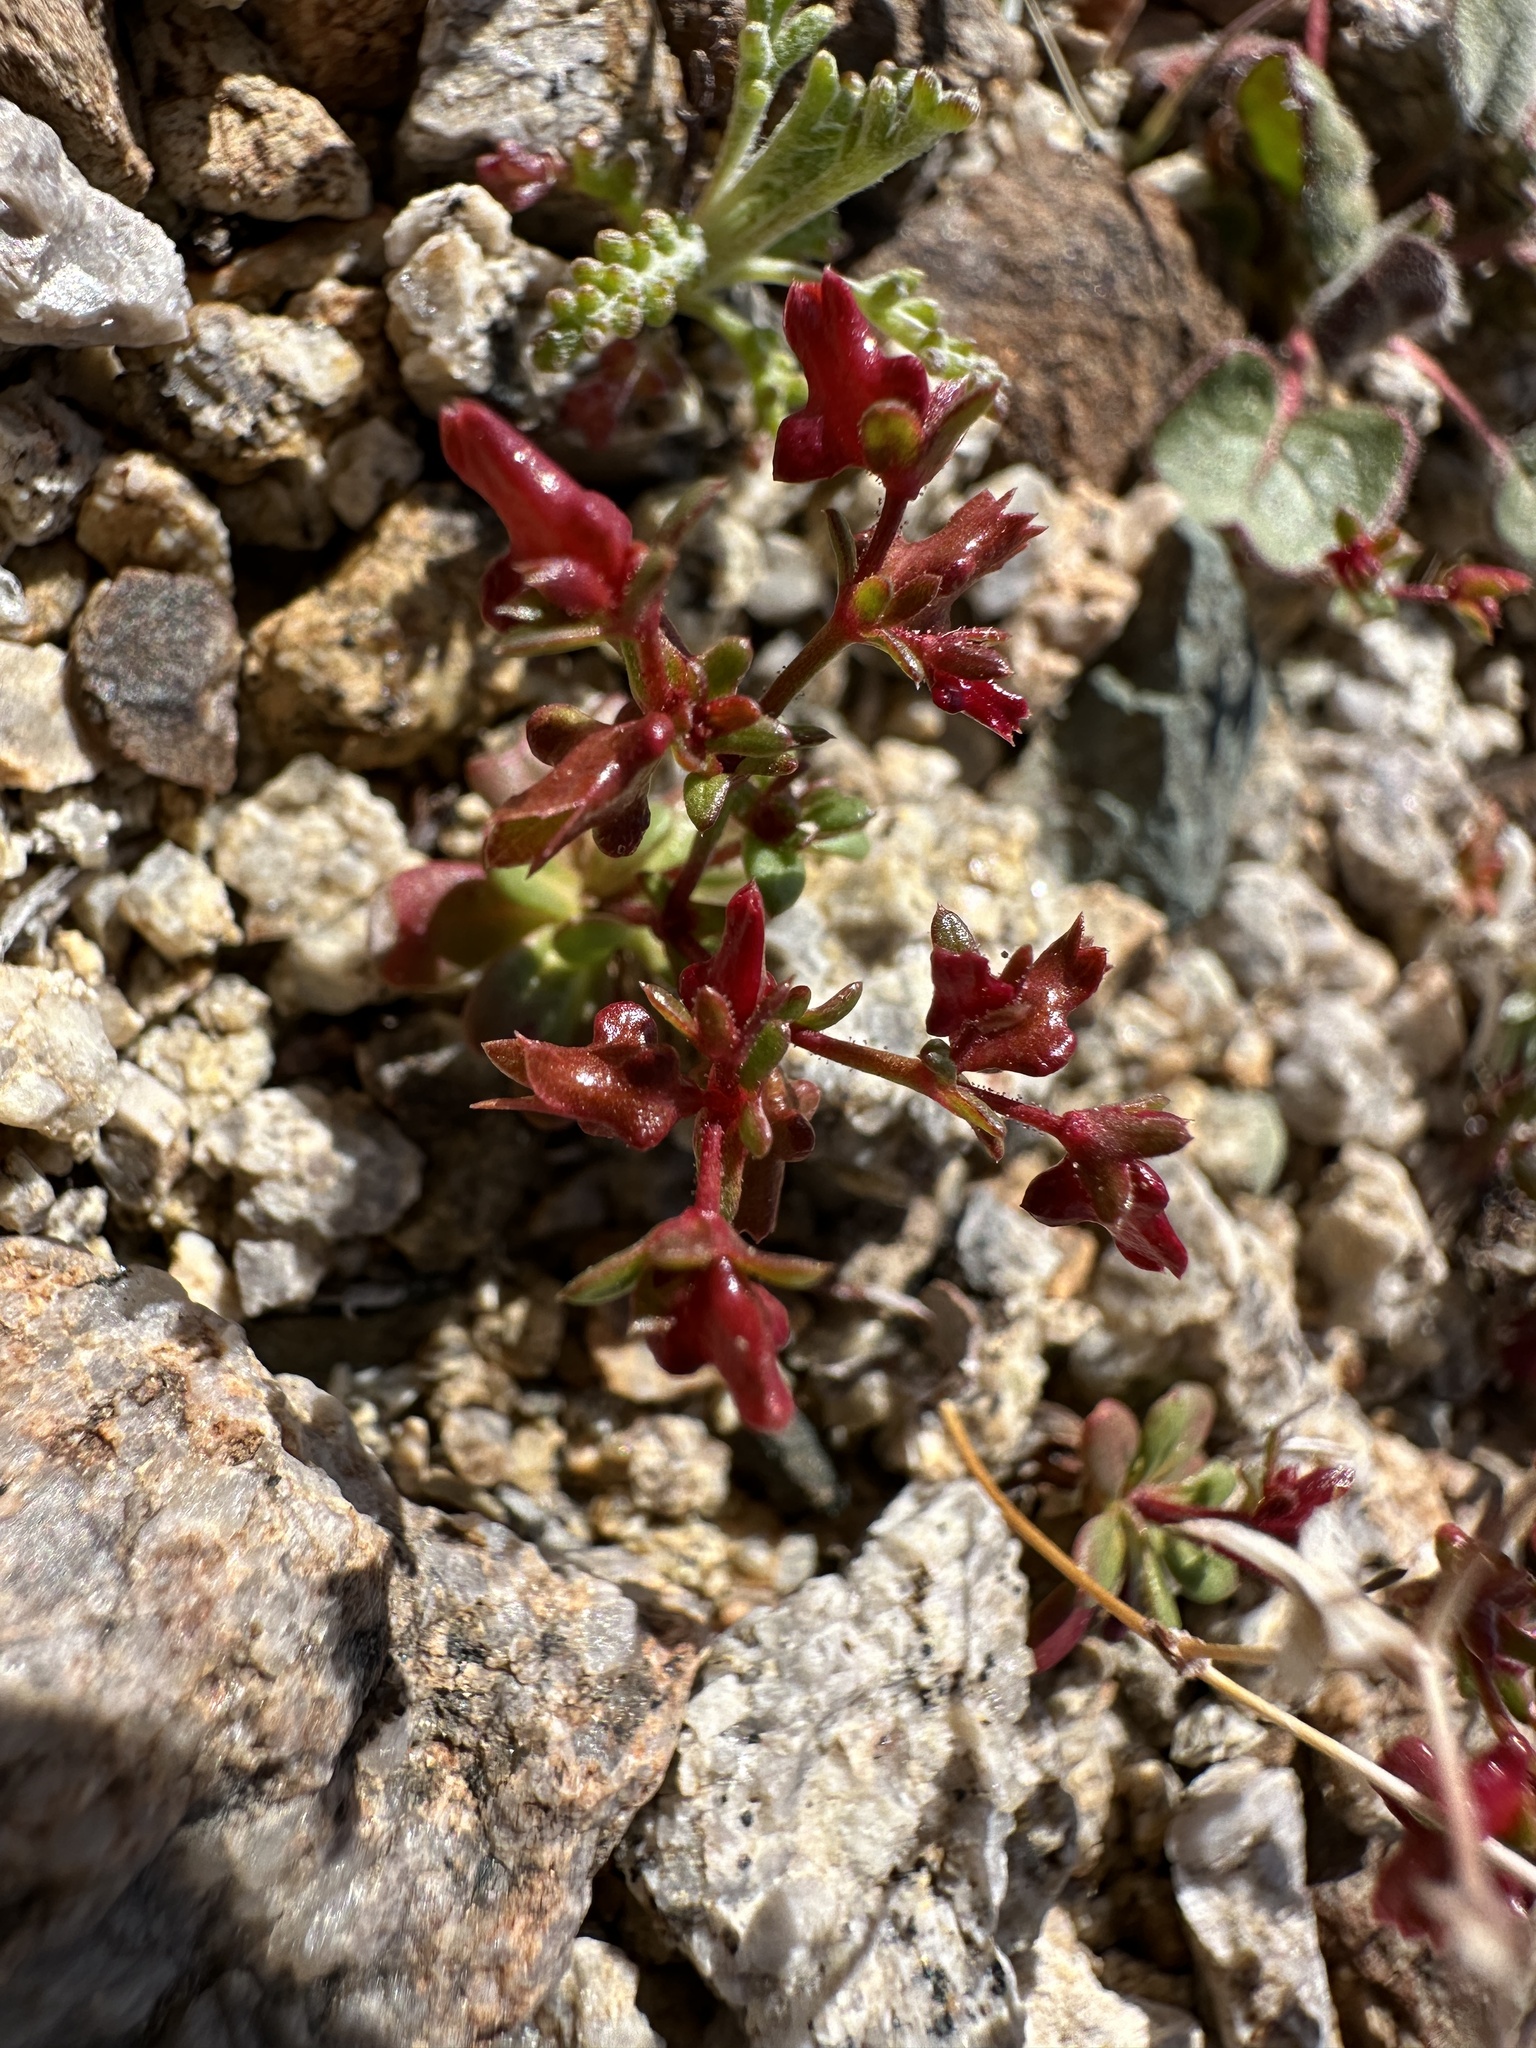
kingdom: Plantae
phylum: Tracheophyta
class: Magnoliopsida
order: Caryophyllales
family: Polygonaceae
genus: Centrostegia
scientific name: Centrostegia thurberi
